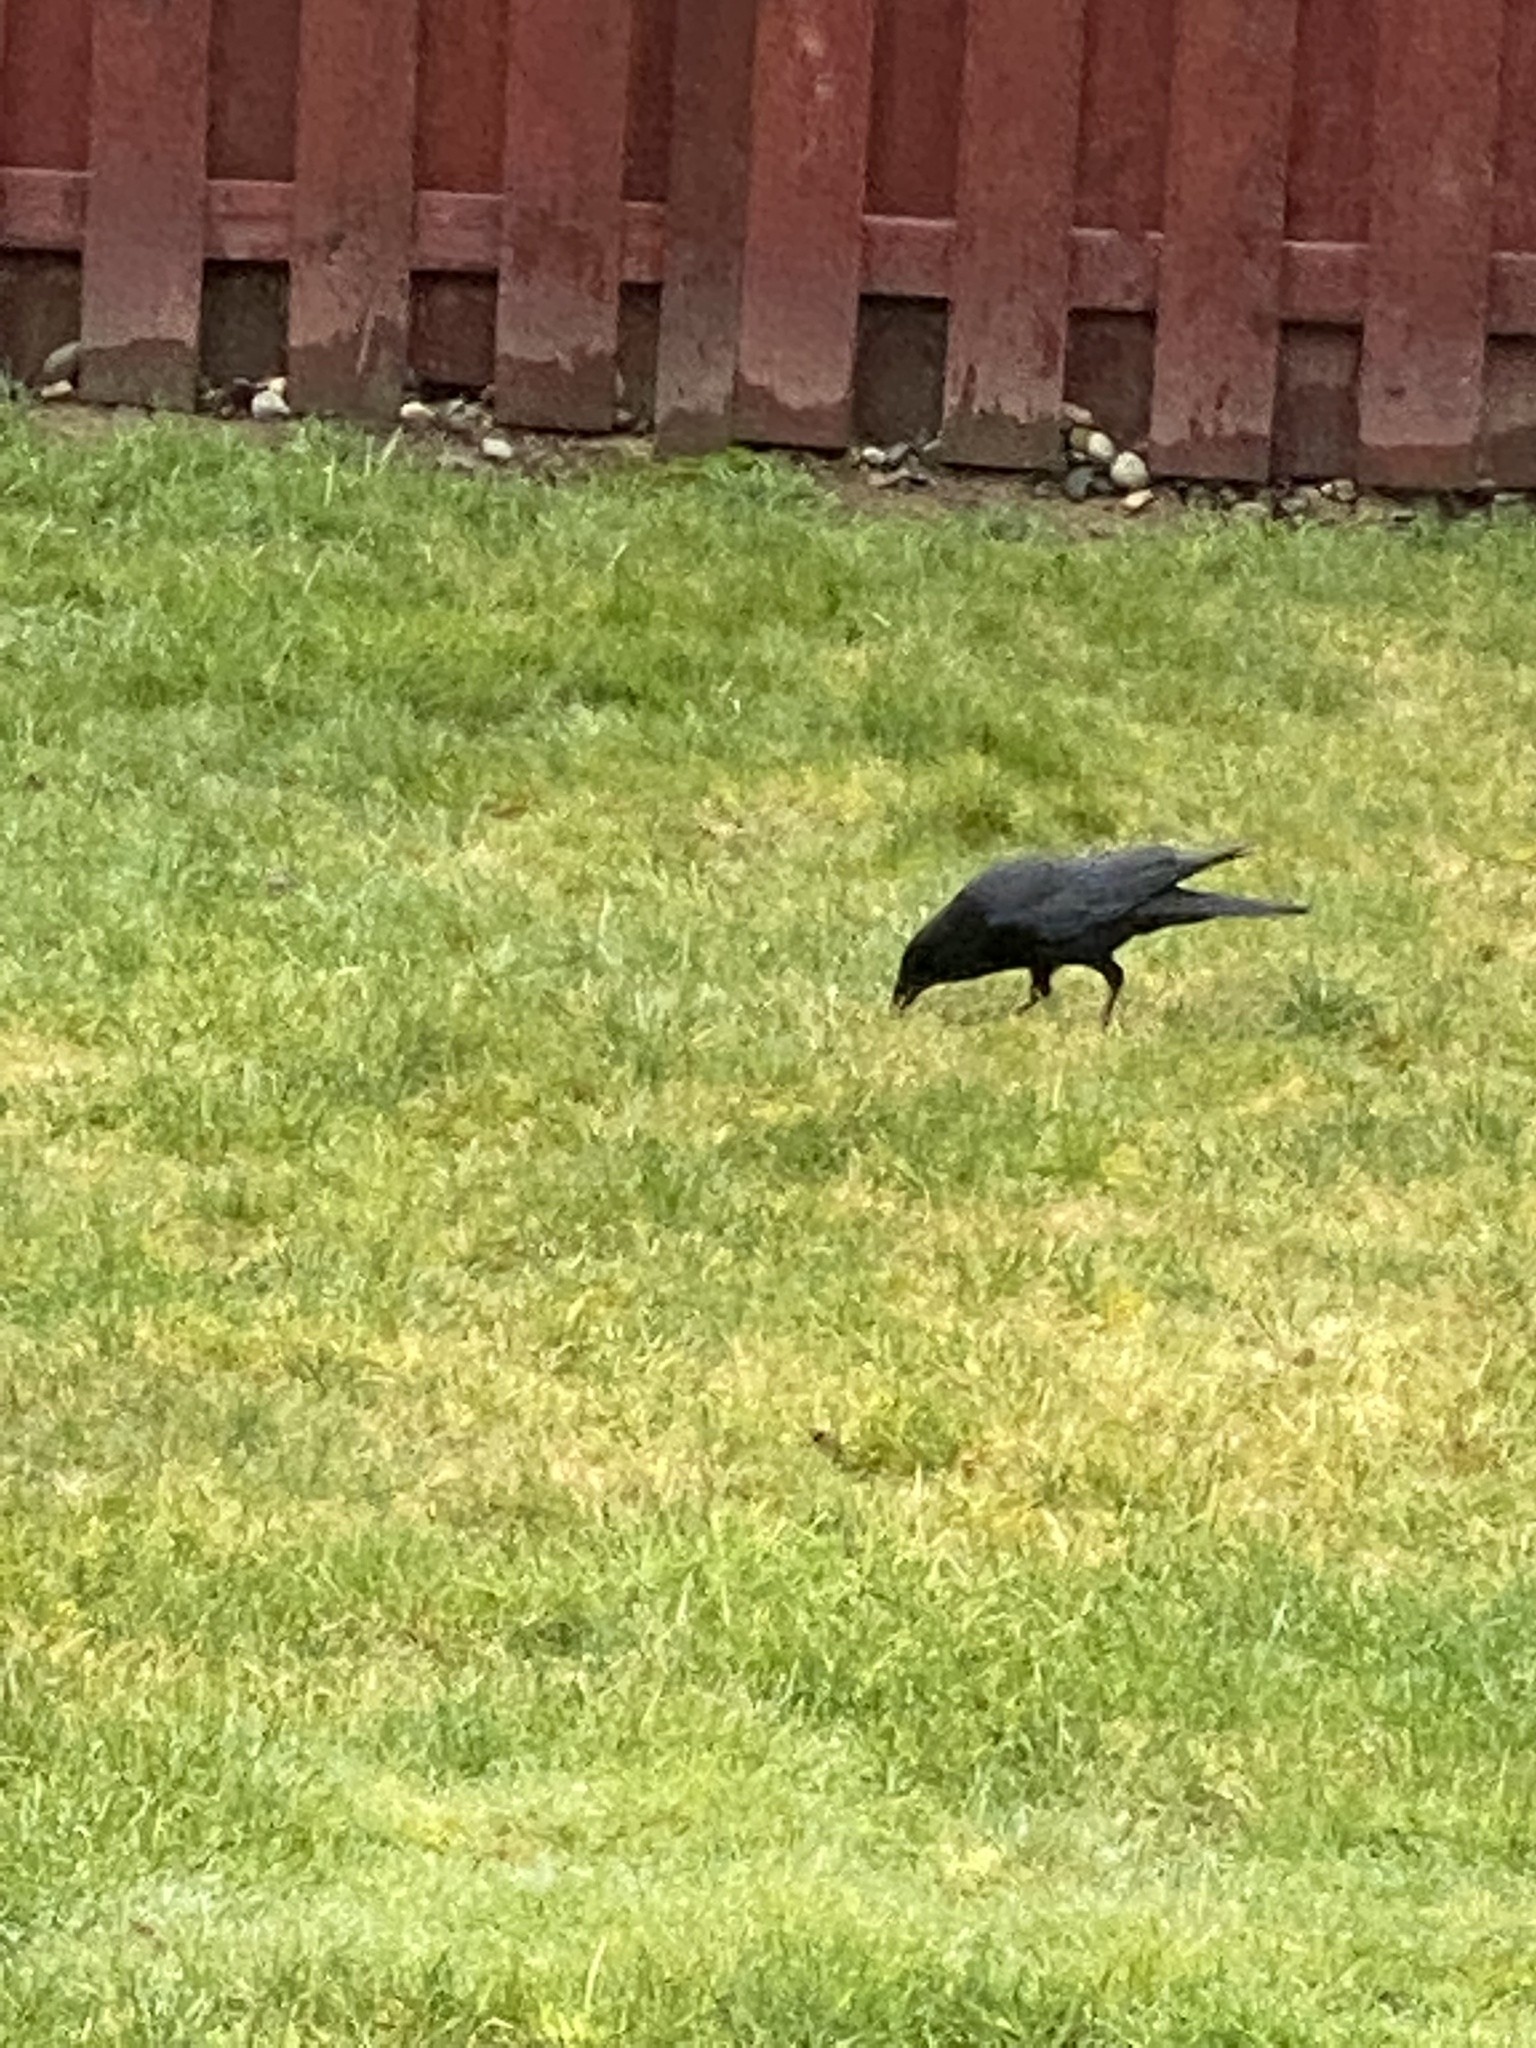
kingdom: Animalia
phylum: Chordata
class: Aves
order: Passeriformes
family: Corvidae
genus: Corvus
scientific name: Corvus brachyrhynchos
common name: American crow
